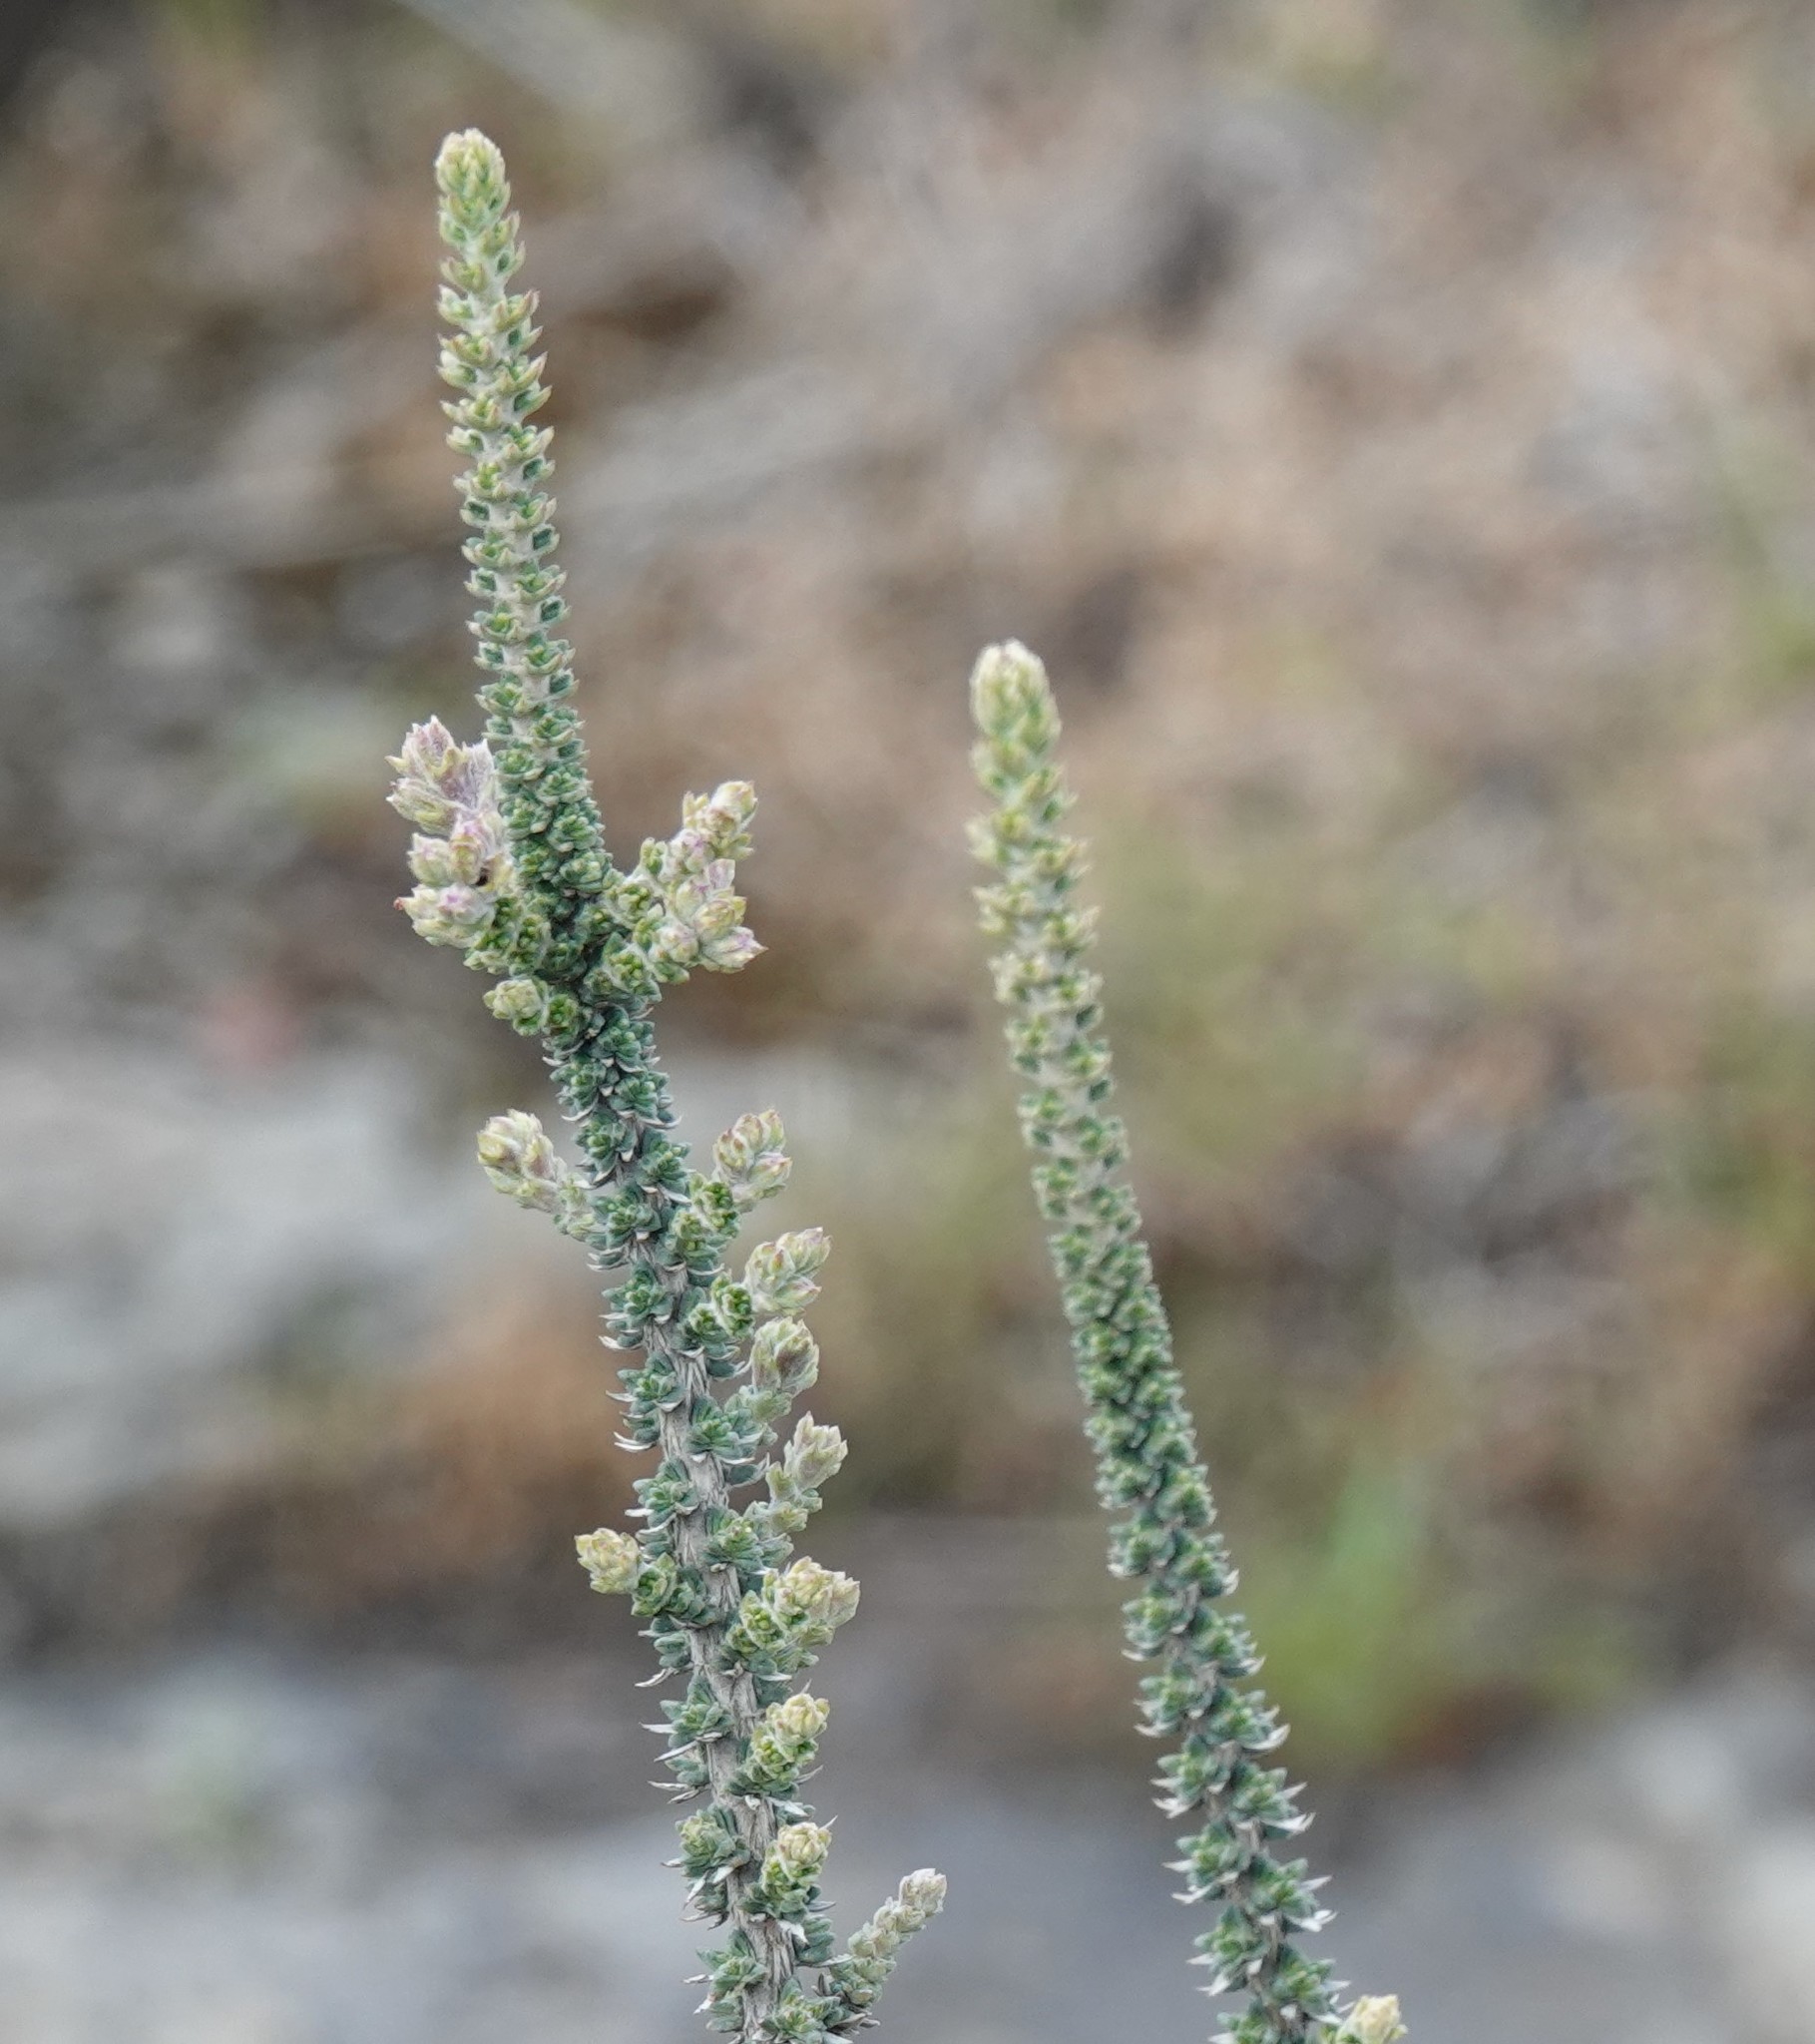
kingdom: Plantae
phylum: Tracheophyta
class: Magnoliopsida
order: Lamiales
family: Verbenaceae
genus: Mulguraea
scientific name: Mulguraea tridens
